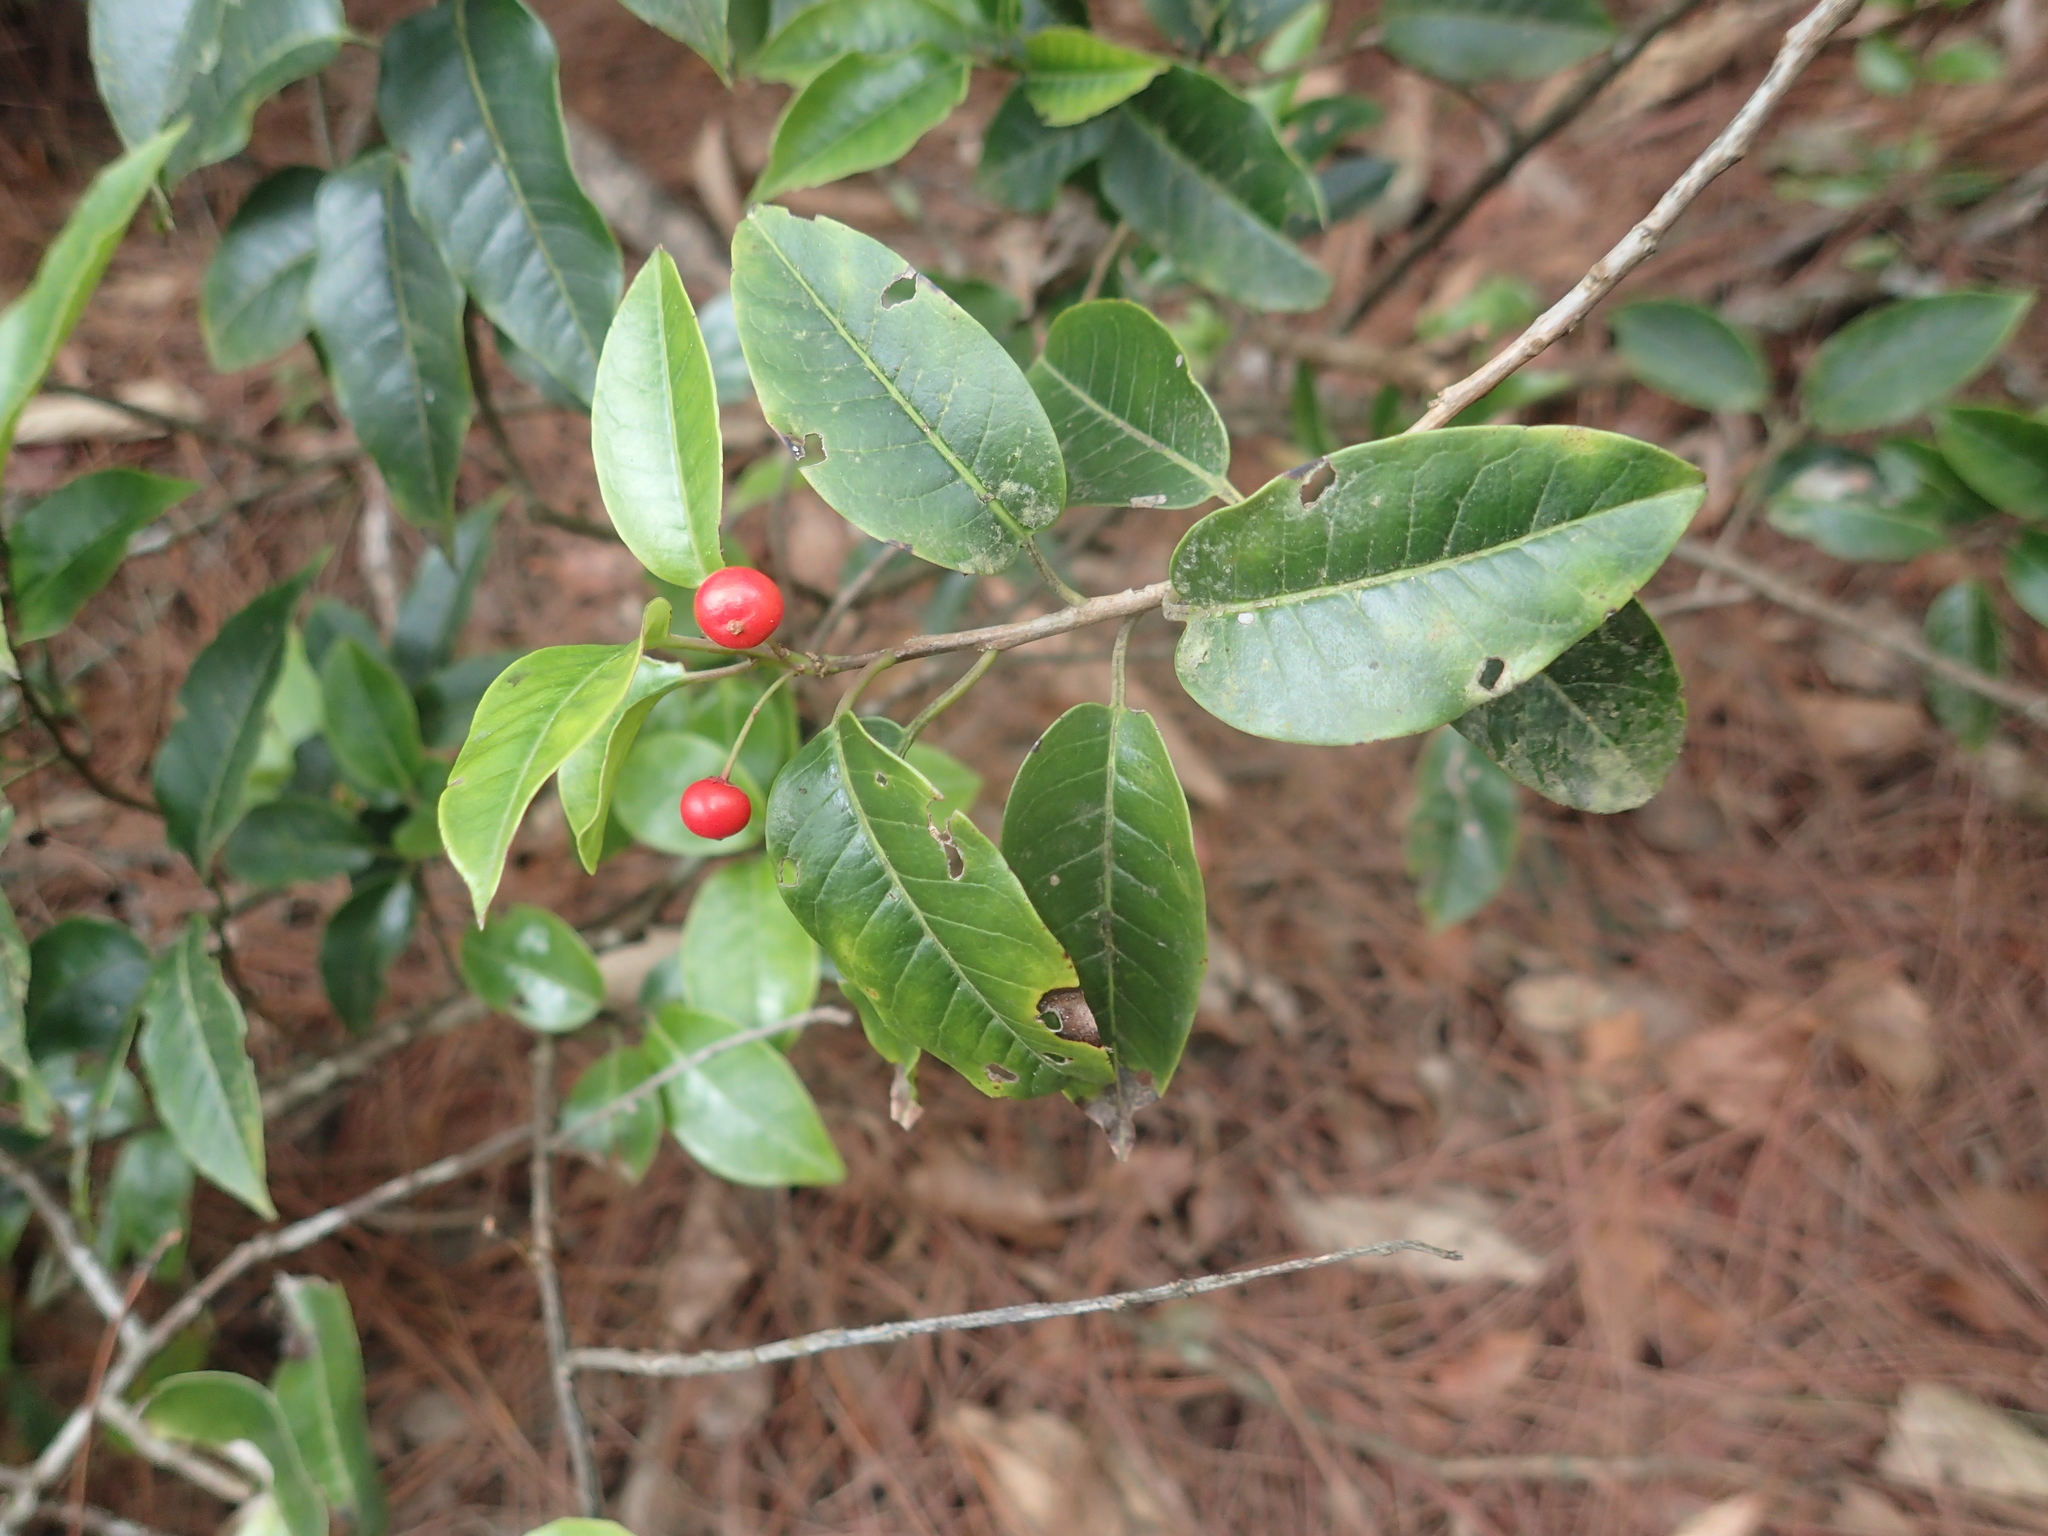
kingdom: Plantae
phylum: Tracheophyta
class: Magnoliopsida
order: Aquifoliales
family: Aquifoliaceae
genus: Ilex
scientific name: Ilex pedunculosa
